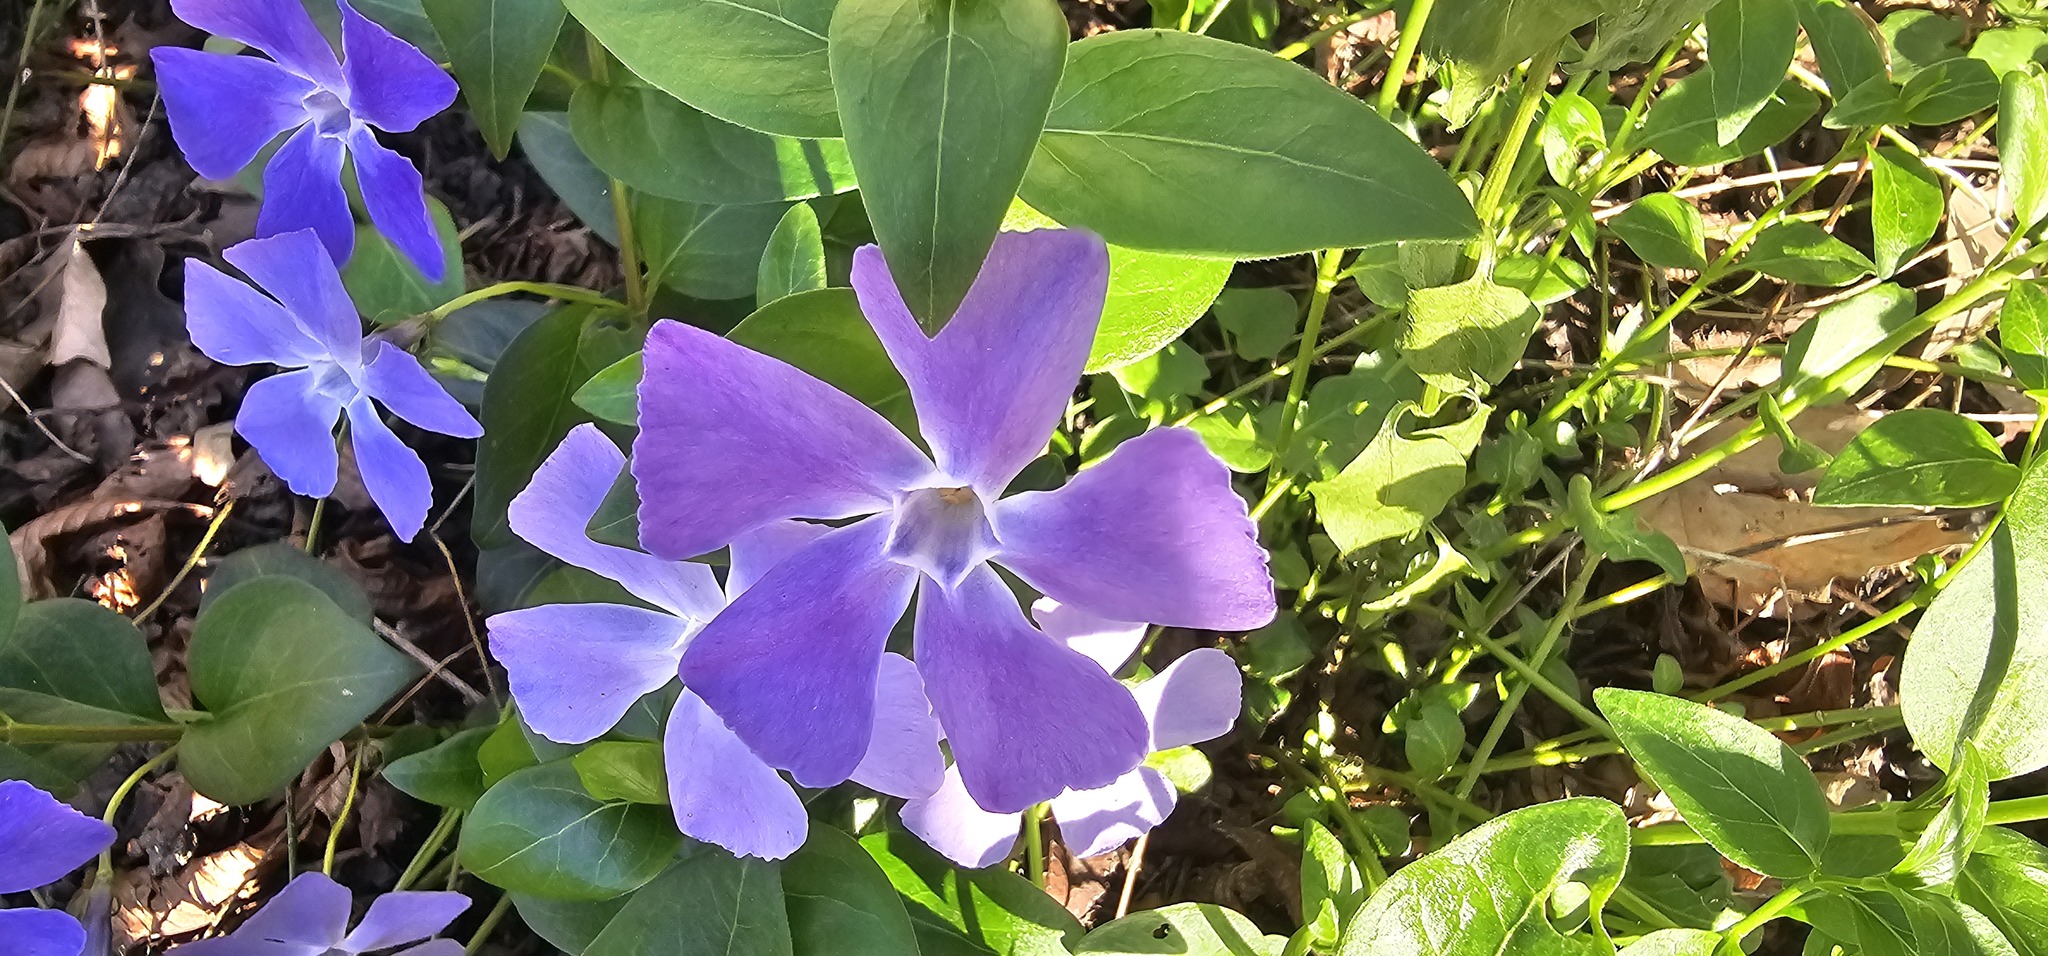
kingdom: Plantae
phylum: Tracheophyta
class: Magnoliopsida
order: Gentianales
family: Apocynaceae
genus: Vinca
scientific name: Vinca major
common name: Greater periwinkle
